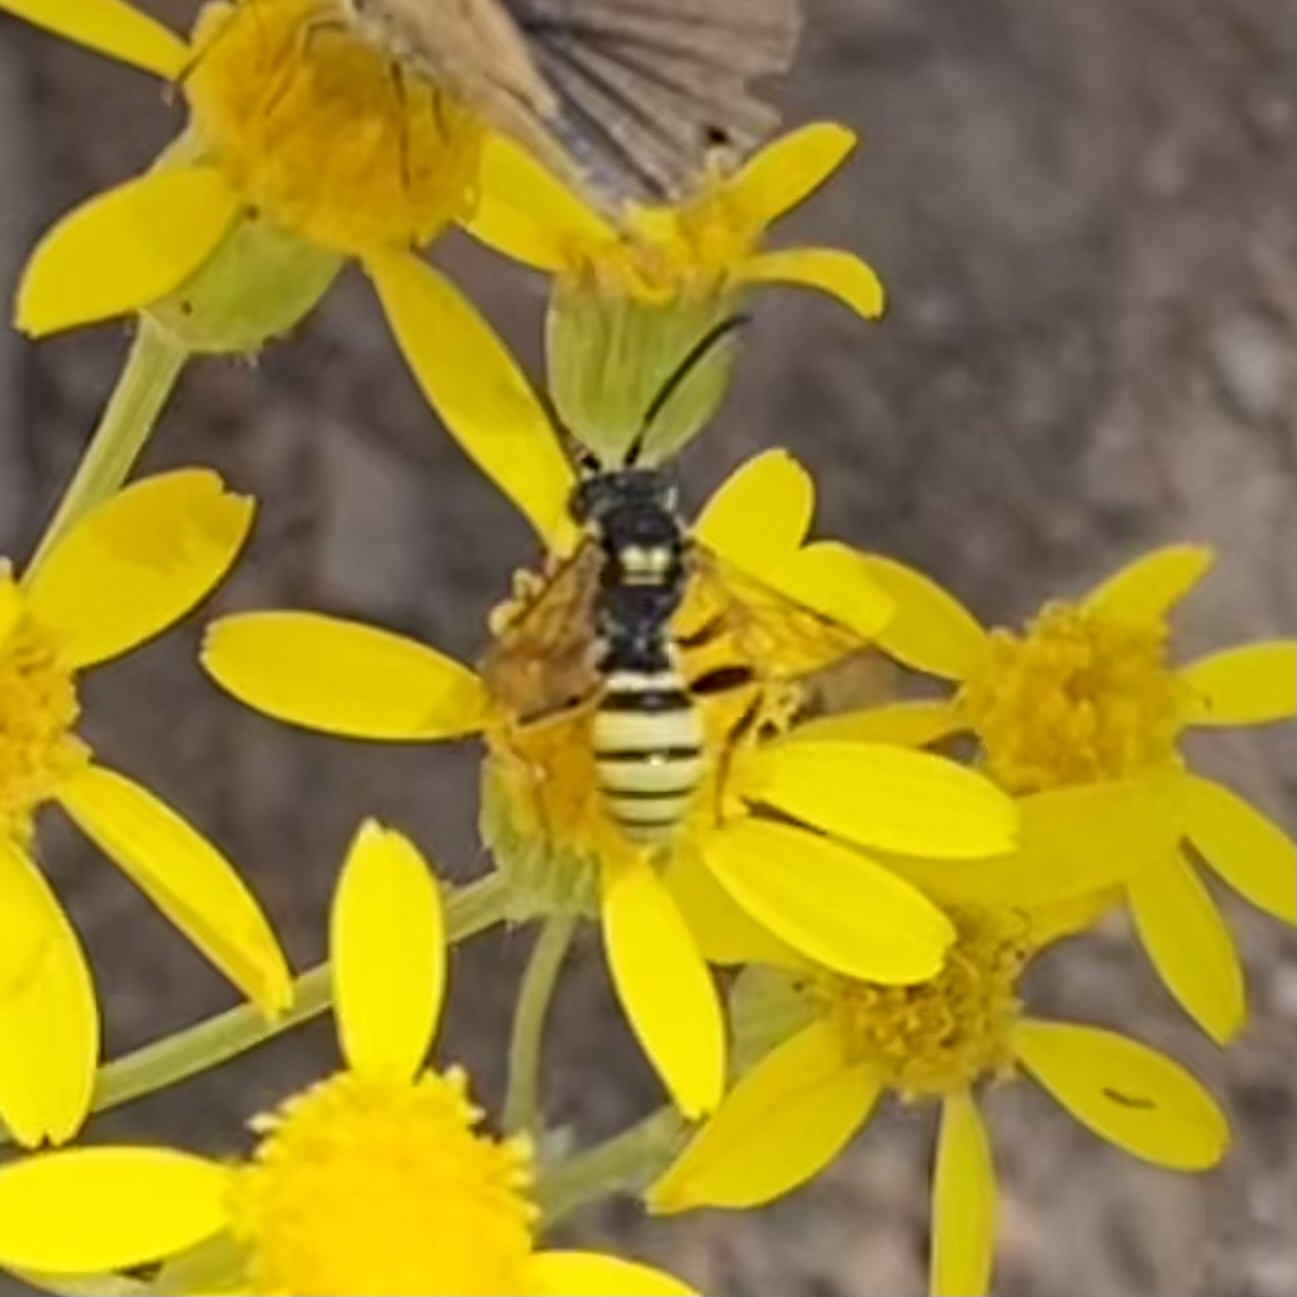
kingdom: Animalia
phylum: Arthropoda
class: Insecta
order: Hymenoptera
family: Apidae
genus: Nomada
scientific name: Nomada
